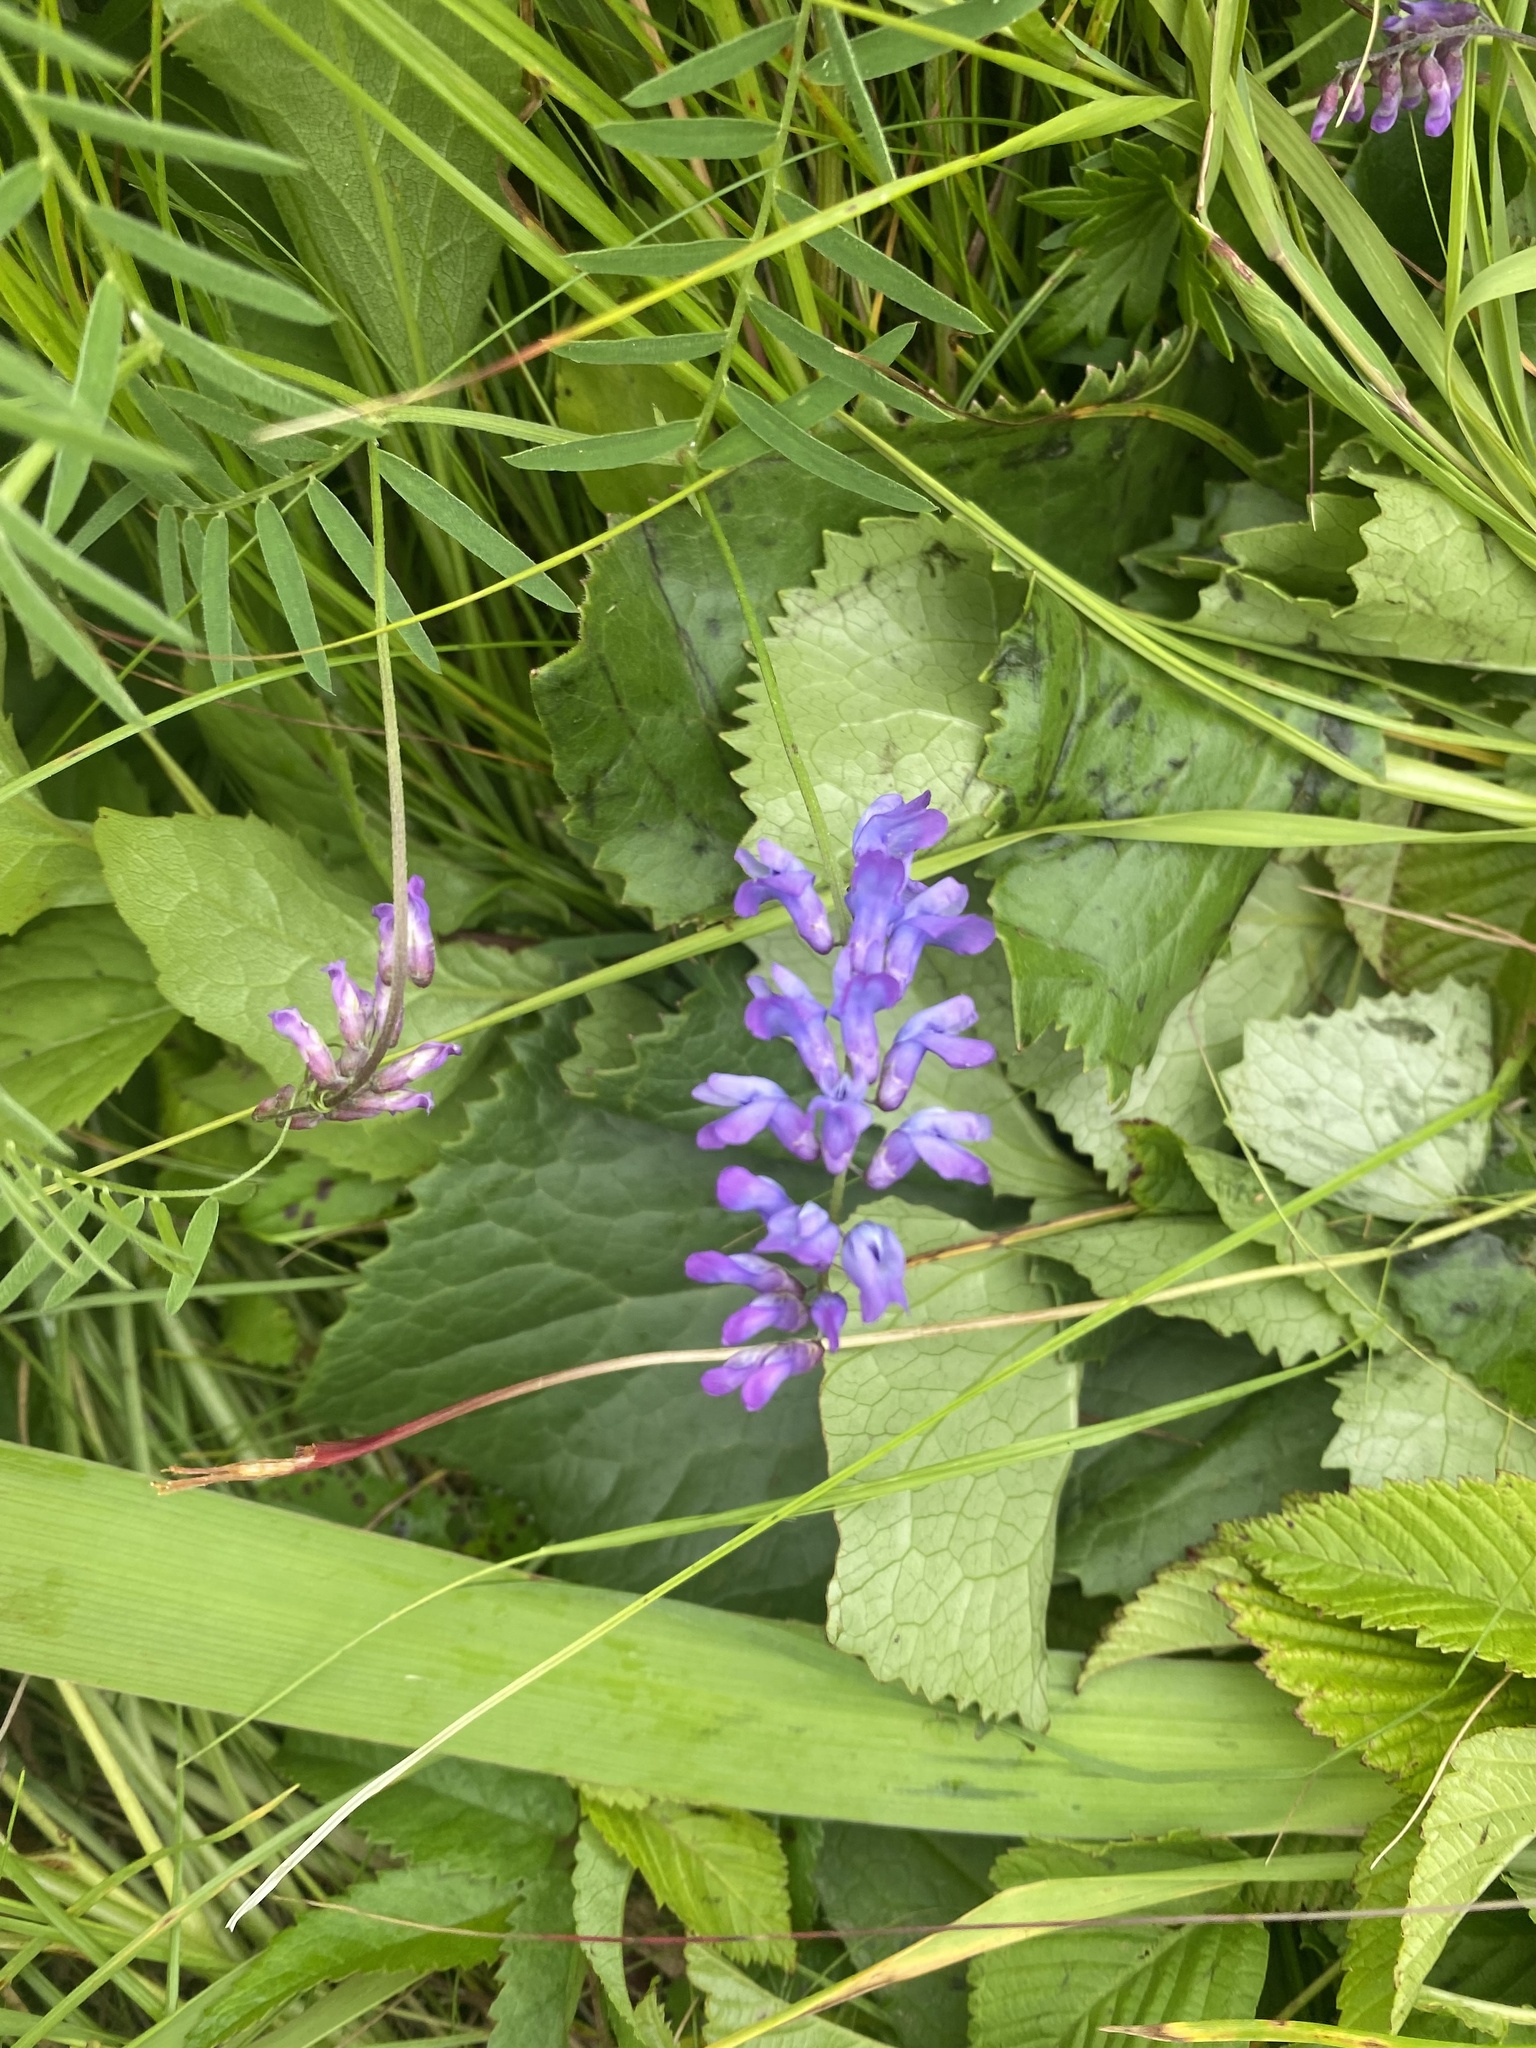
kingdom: Plantae
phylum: Tracheophyta
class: Magnoliopsida
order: Fabales
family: Fabaceae
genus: Vicia
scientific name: Vicia cracca
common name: Bird vetch
